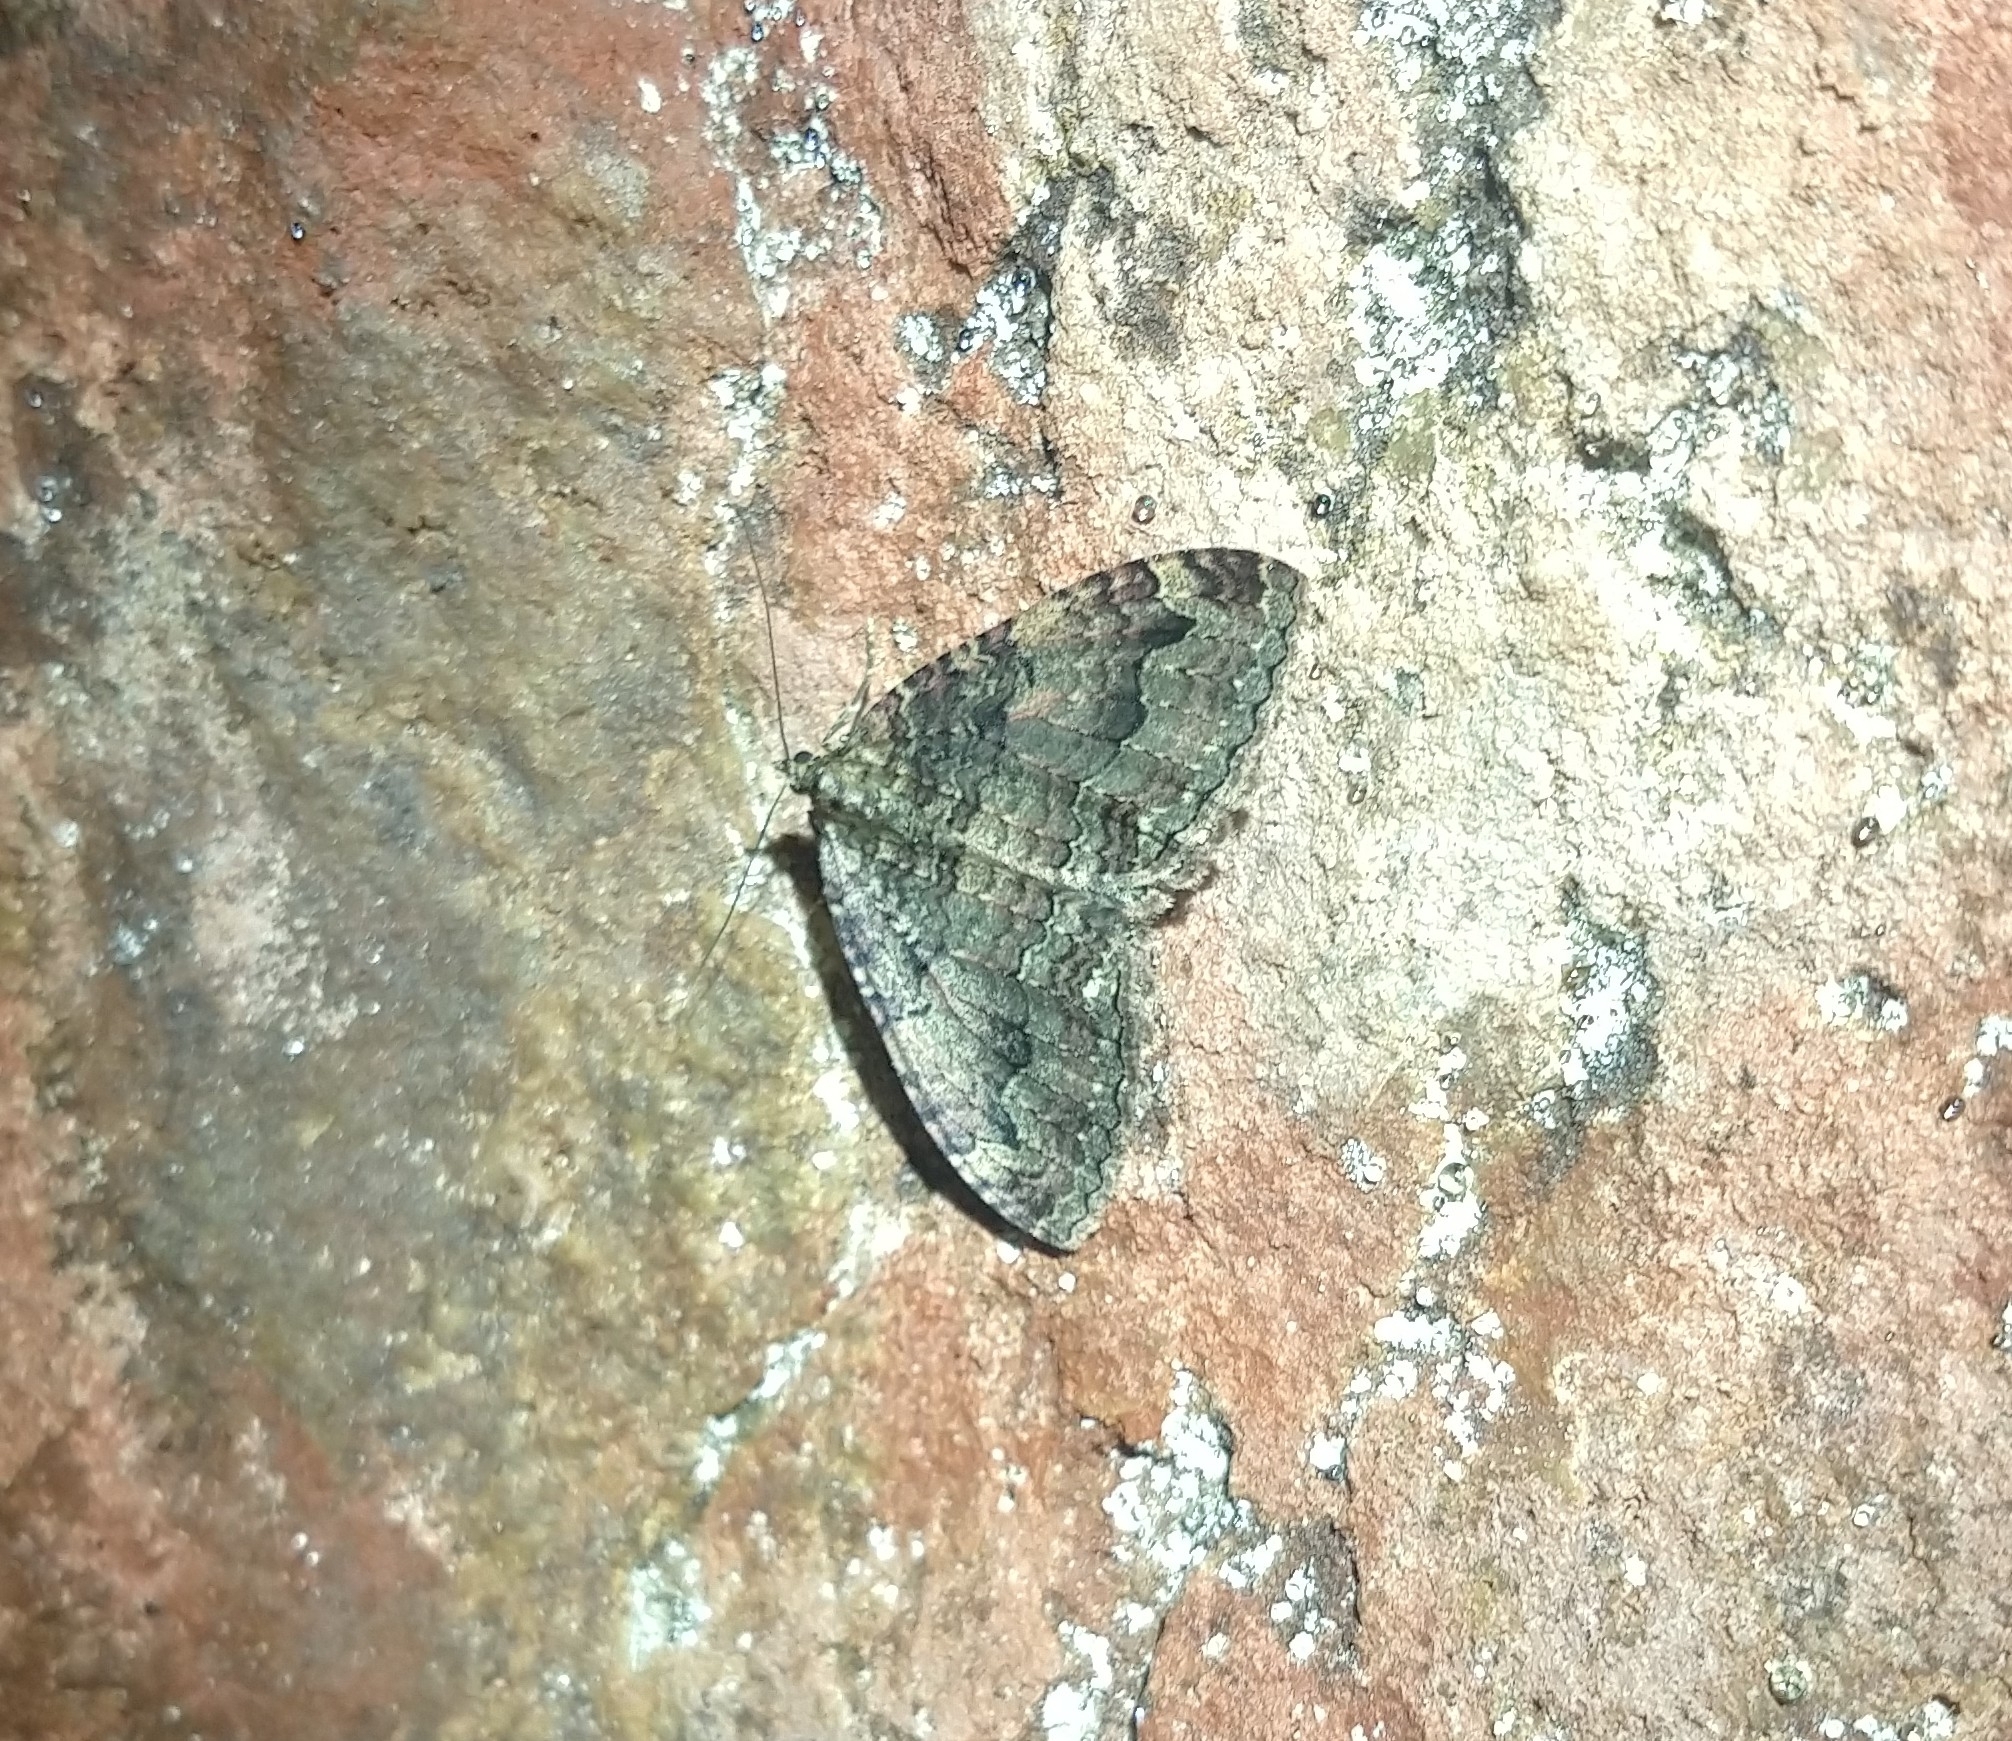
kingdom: Animalia
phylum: Arthropoda
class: Insecta
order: Lepidoptera
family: Geometridae
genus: Triphosa
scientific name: Triphosa dubitata
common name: Tissue
